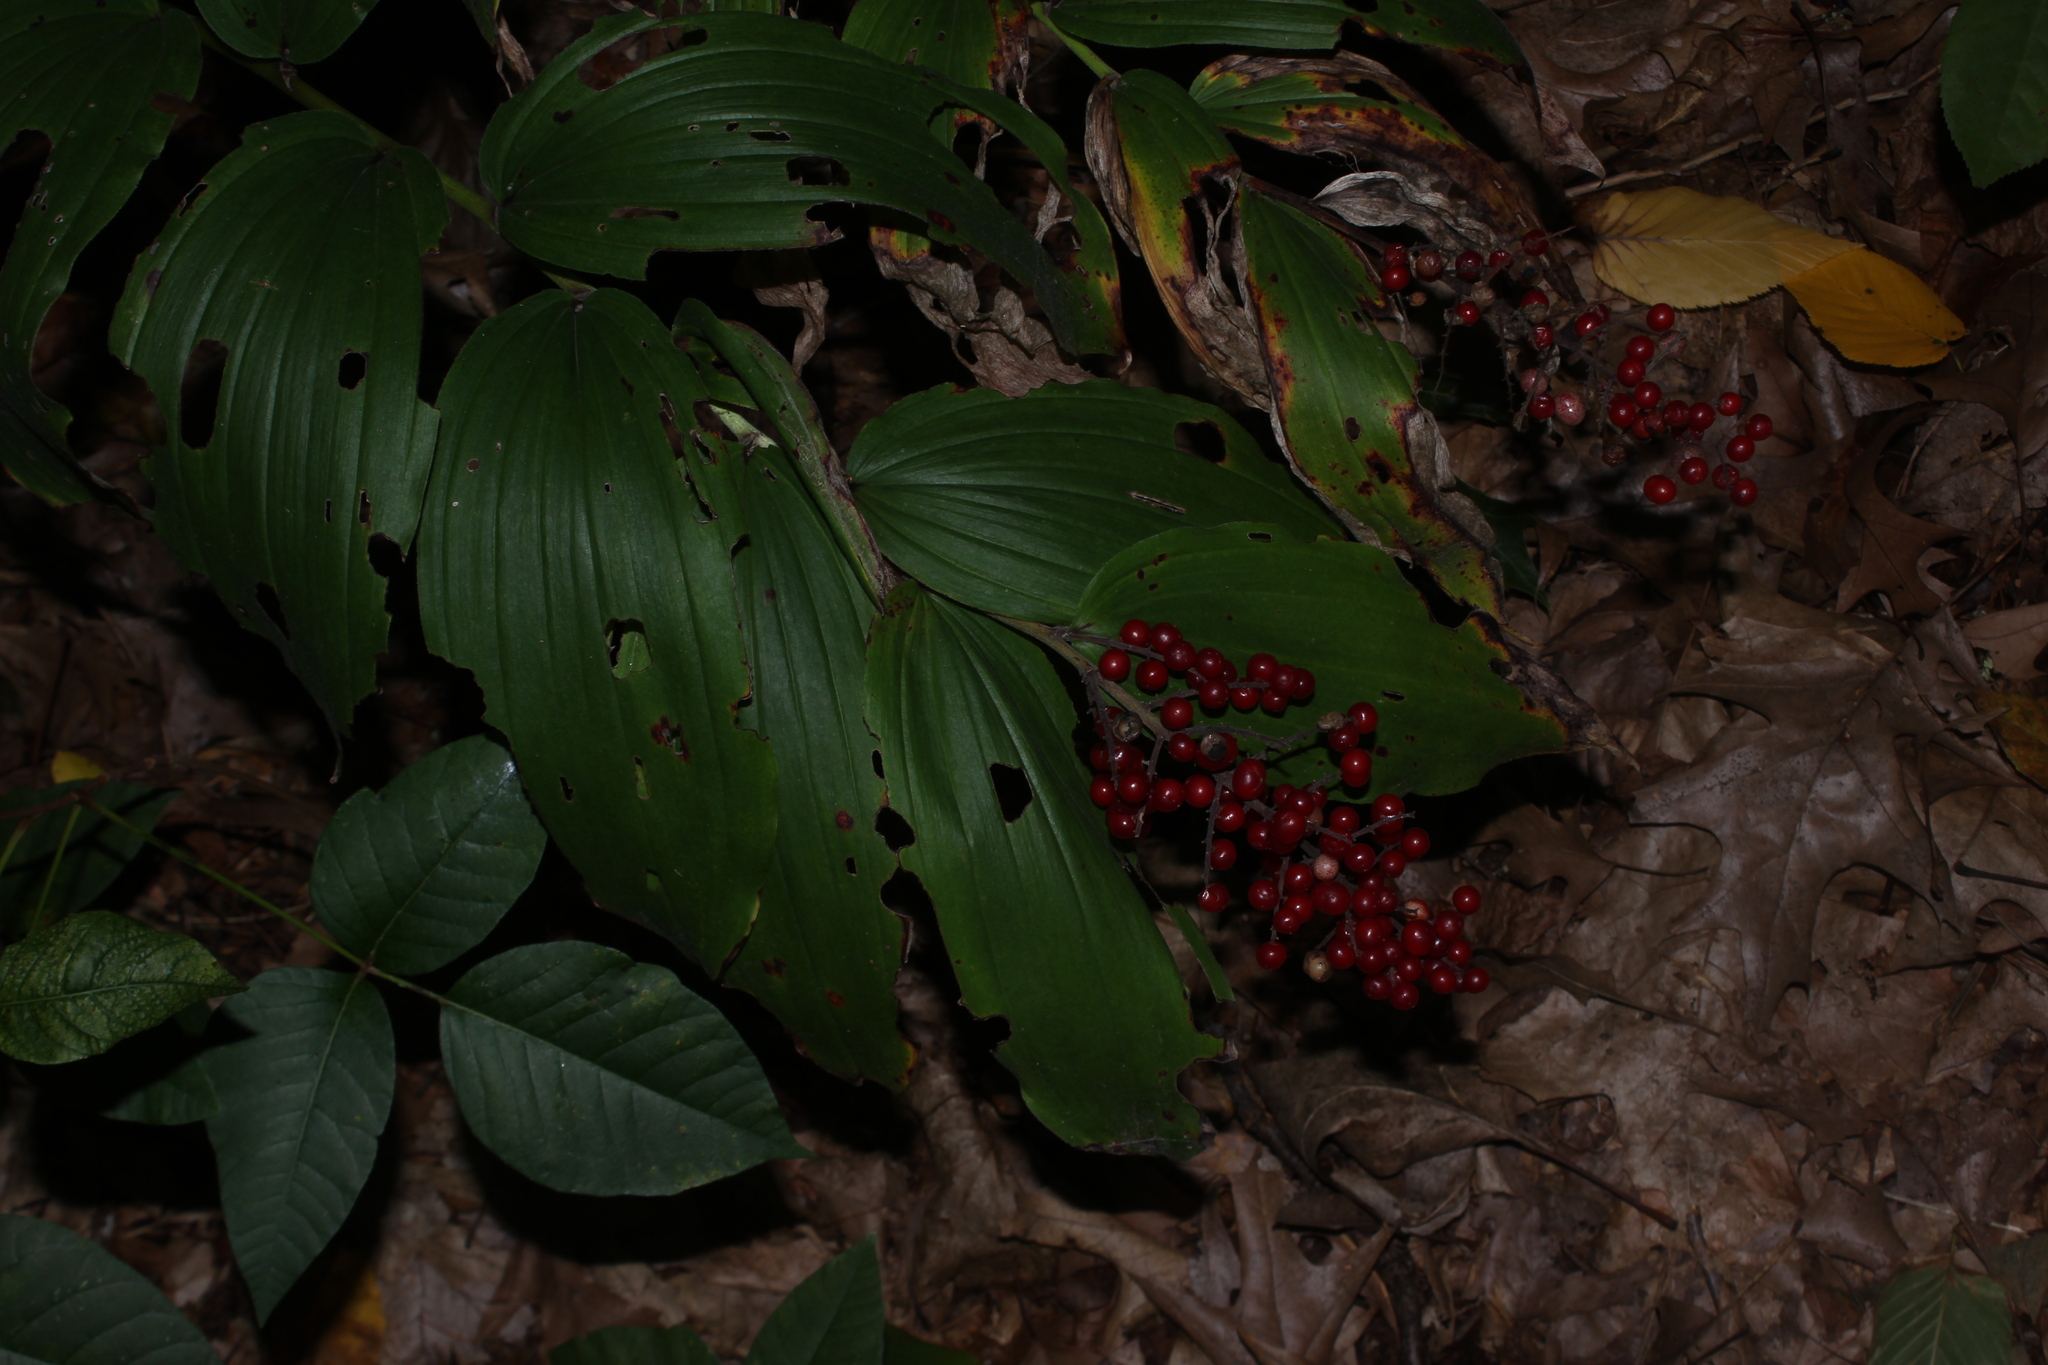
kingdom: Plantae
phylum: Tracheophyta
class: Liliopsida
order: Asparagales
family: Asparagaceae
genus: Maianthemum
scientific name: Maianthemum racemosum
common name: False spikenard
